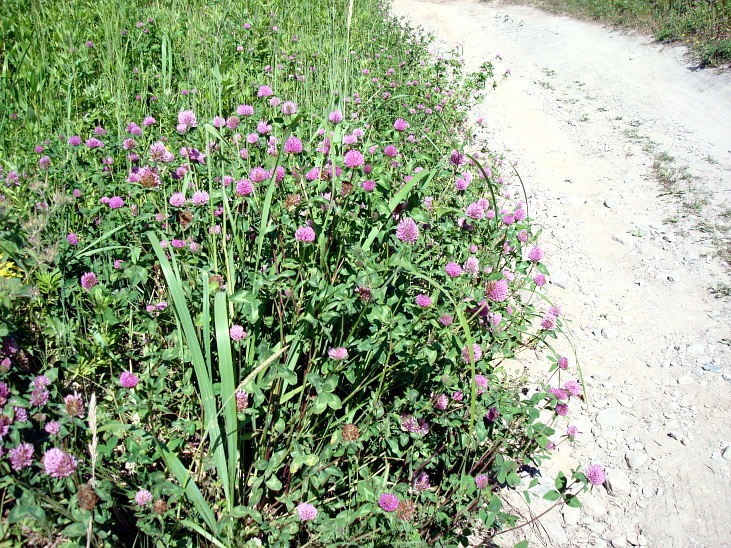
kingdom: Plantae
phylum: Tracheophyta
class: Magnoliopsida
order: Fabales
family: Fabaceae
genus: Trifolium
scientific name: Trifolium pratense
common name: Red clover
